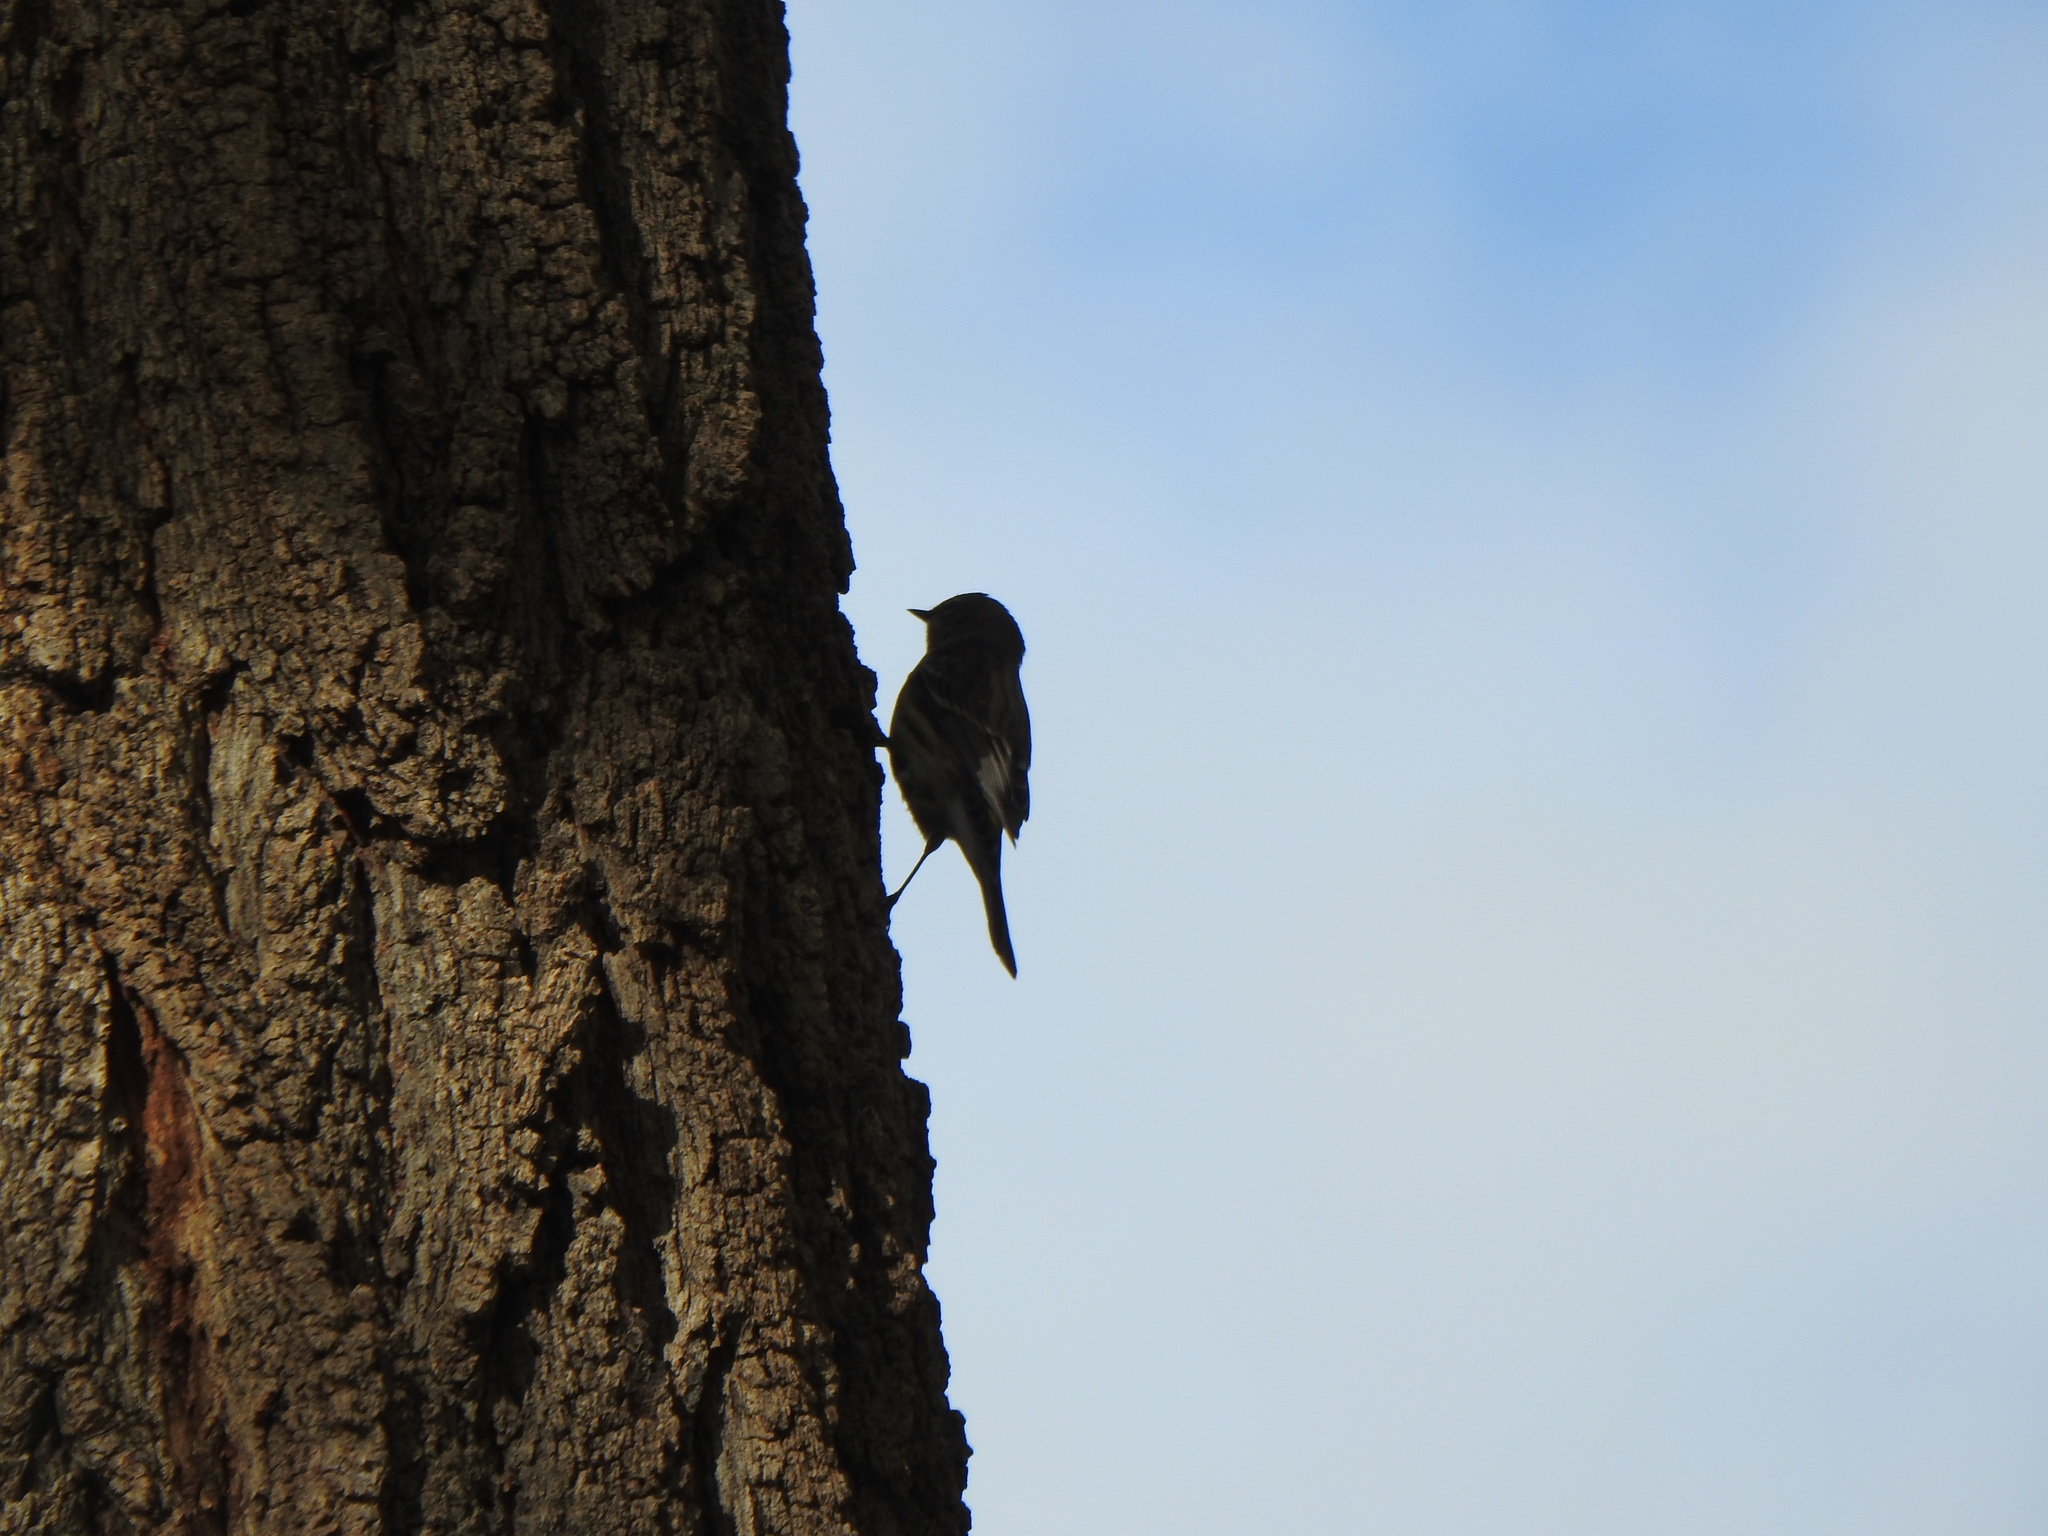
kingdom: Animalia
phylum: Chordata
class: Aves
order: Passeriformes
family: Parulidae
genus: Setophaga
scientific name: Setophaga coronata
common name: Myrtle warbler
